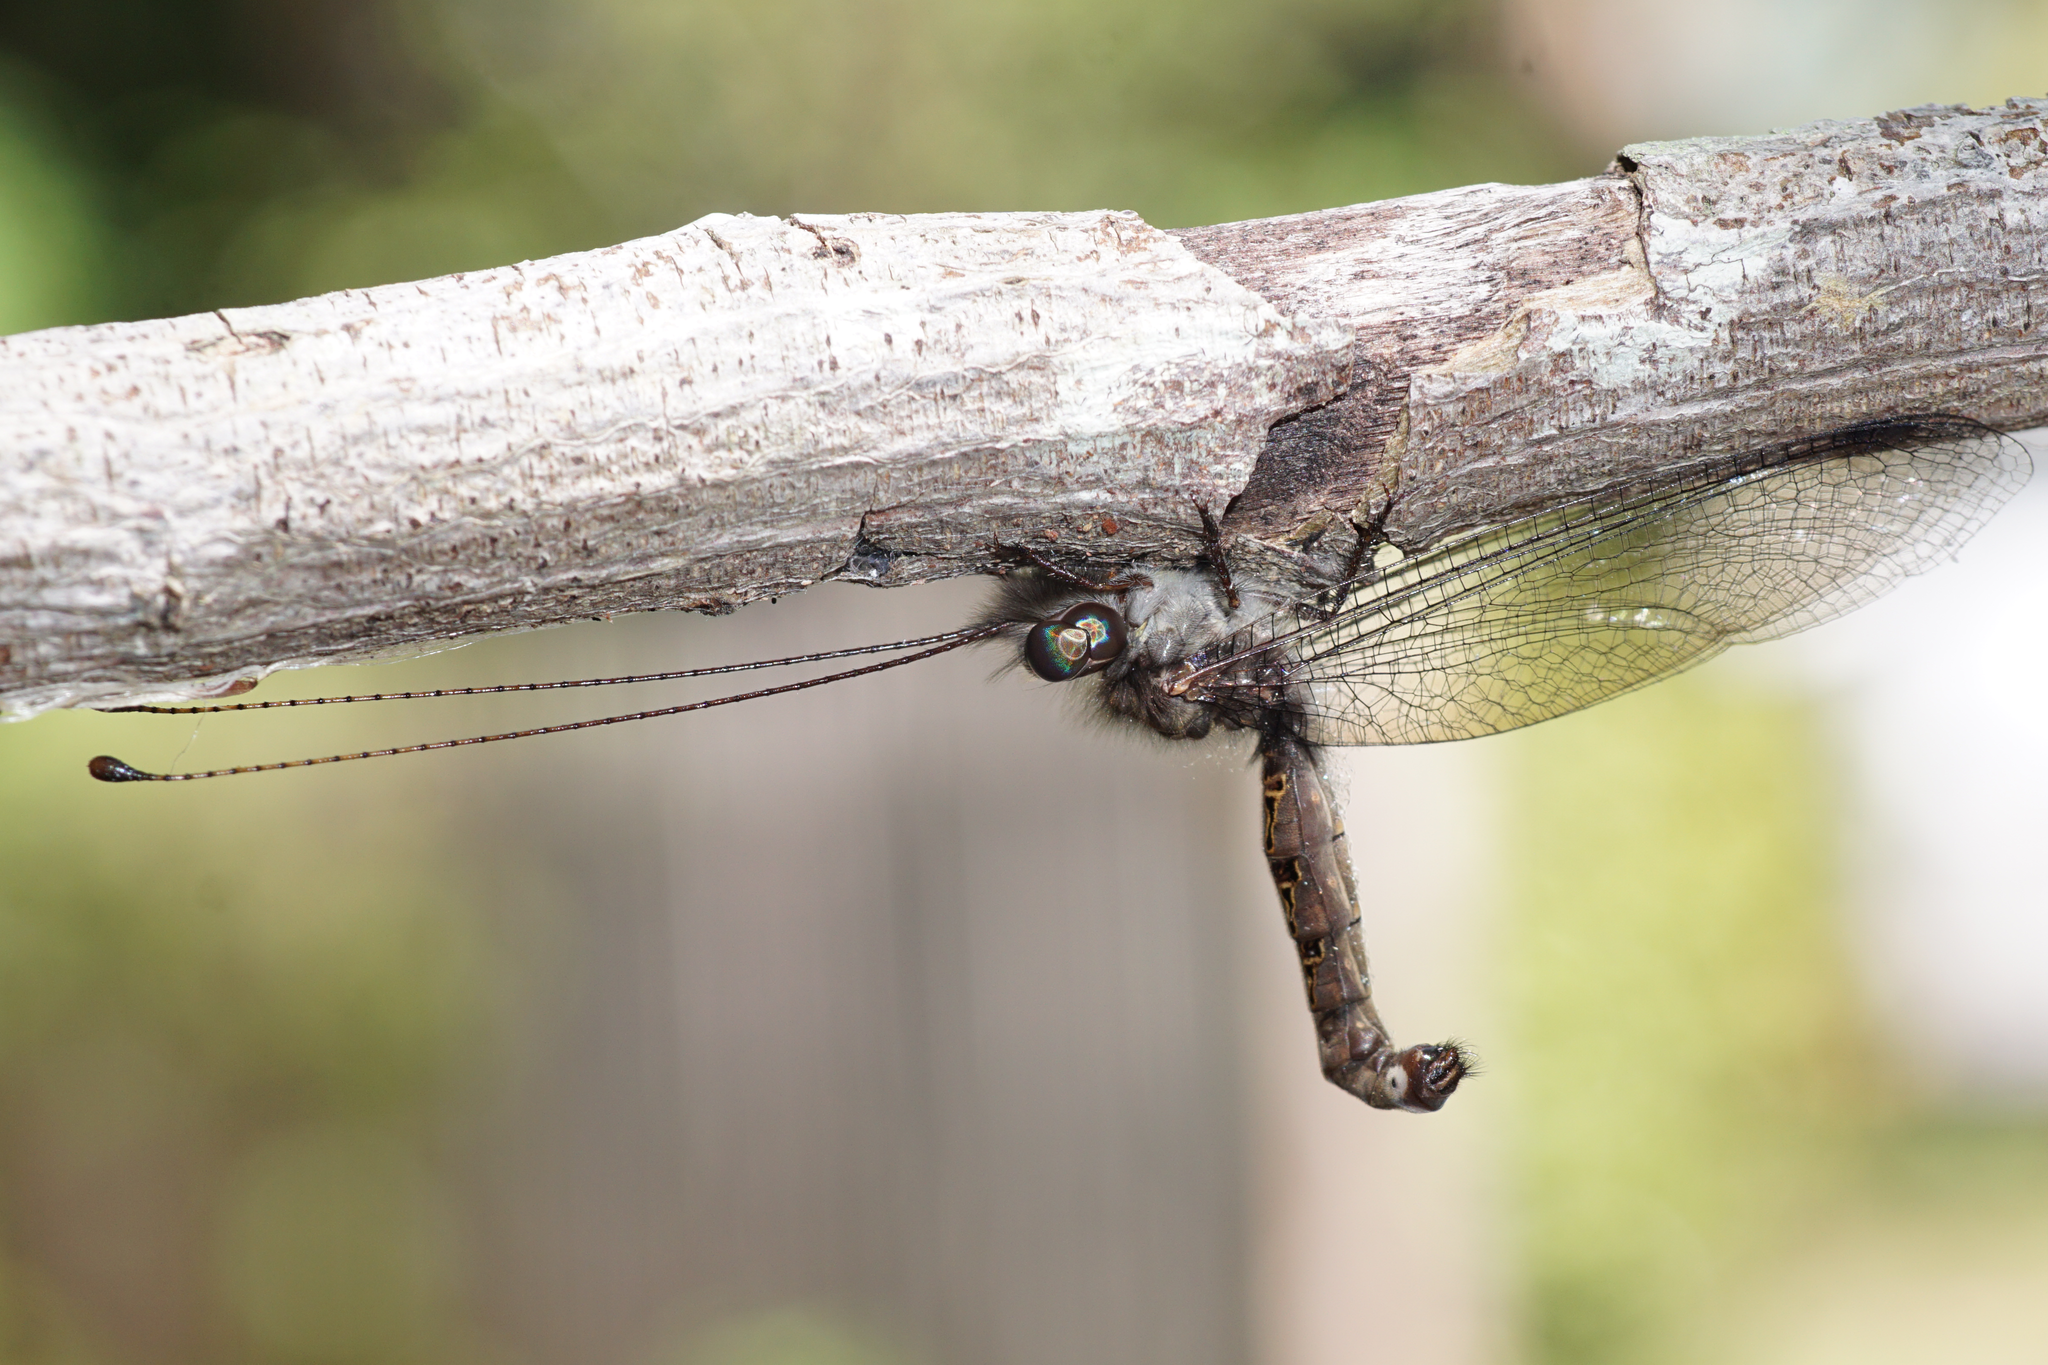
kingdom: Animalia
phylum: Arthropoda
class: Insecta
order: Neuroptera
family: Ascalaphidae
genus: Ululodes
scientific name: Ululodes macleayanus
